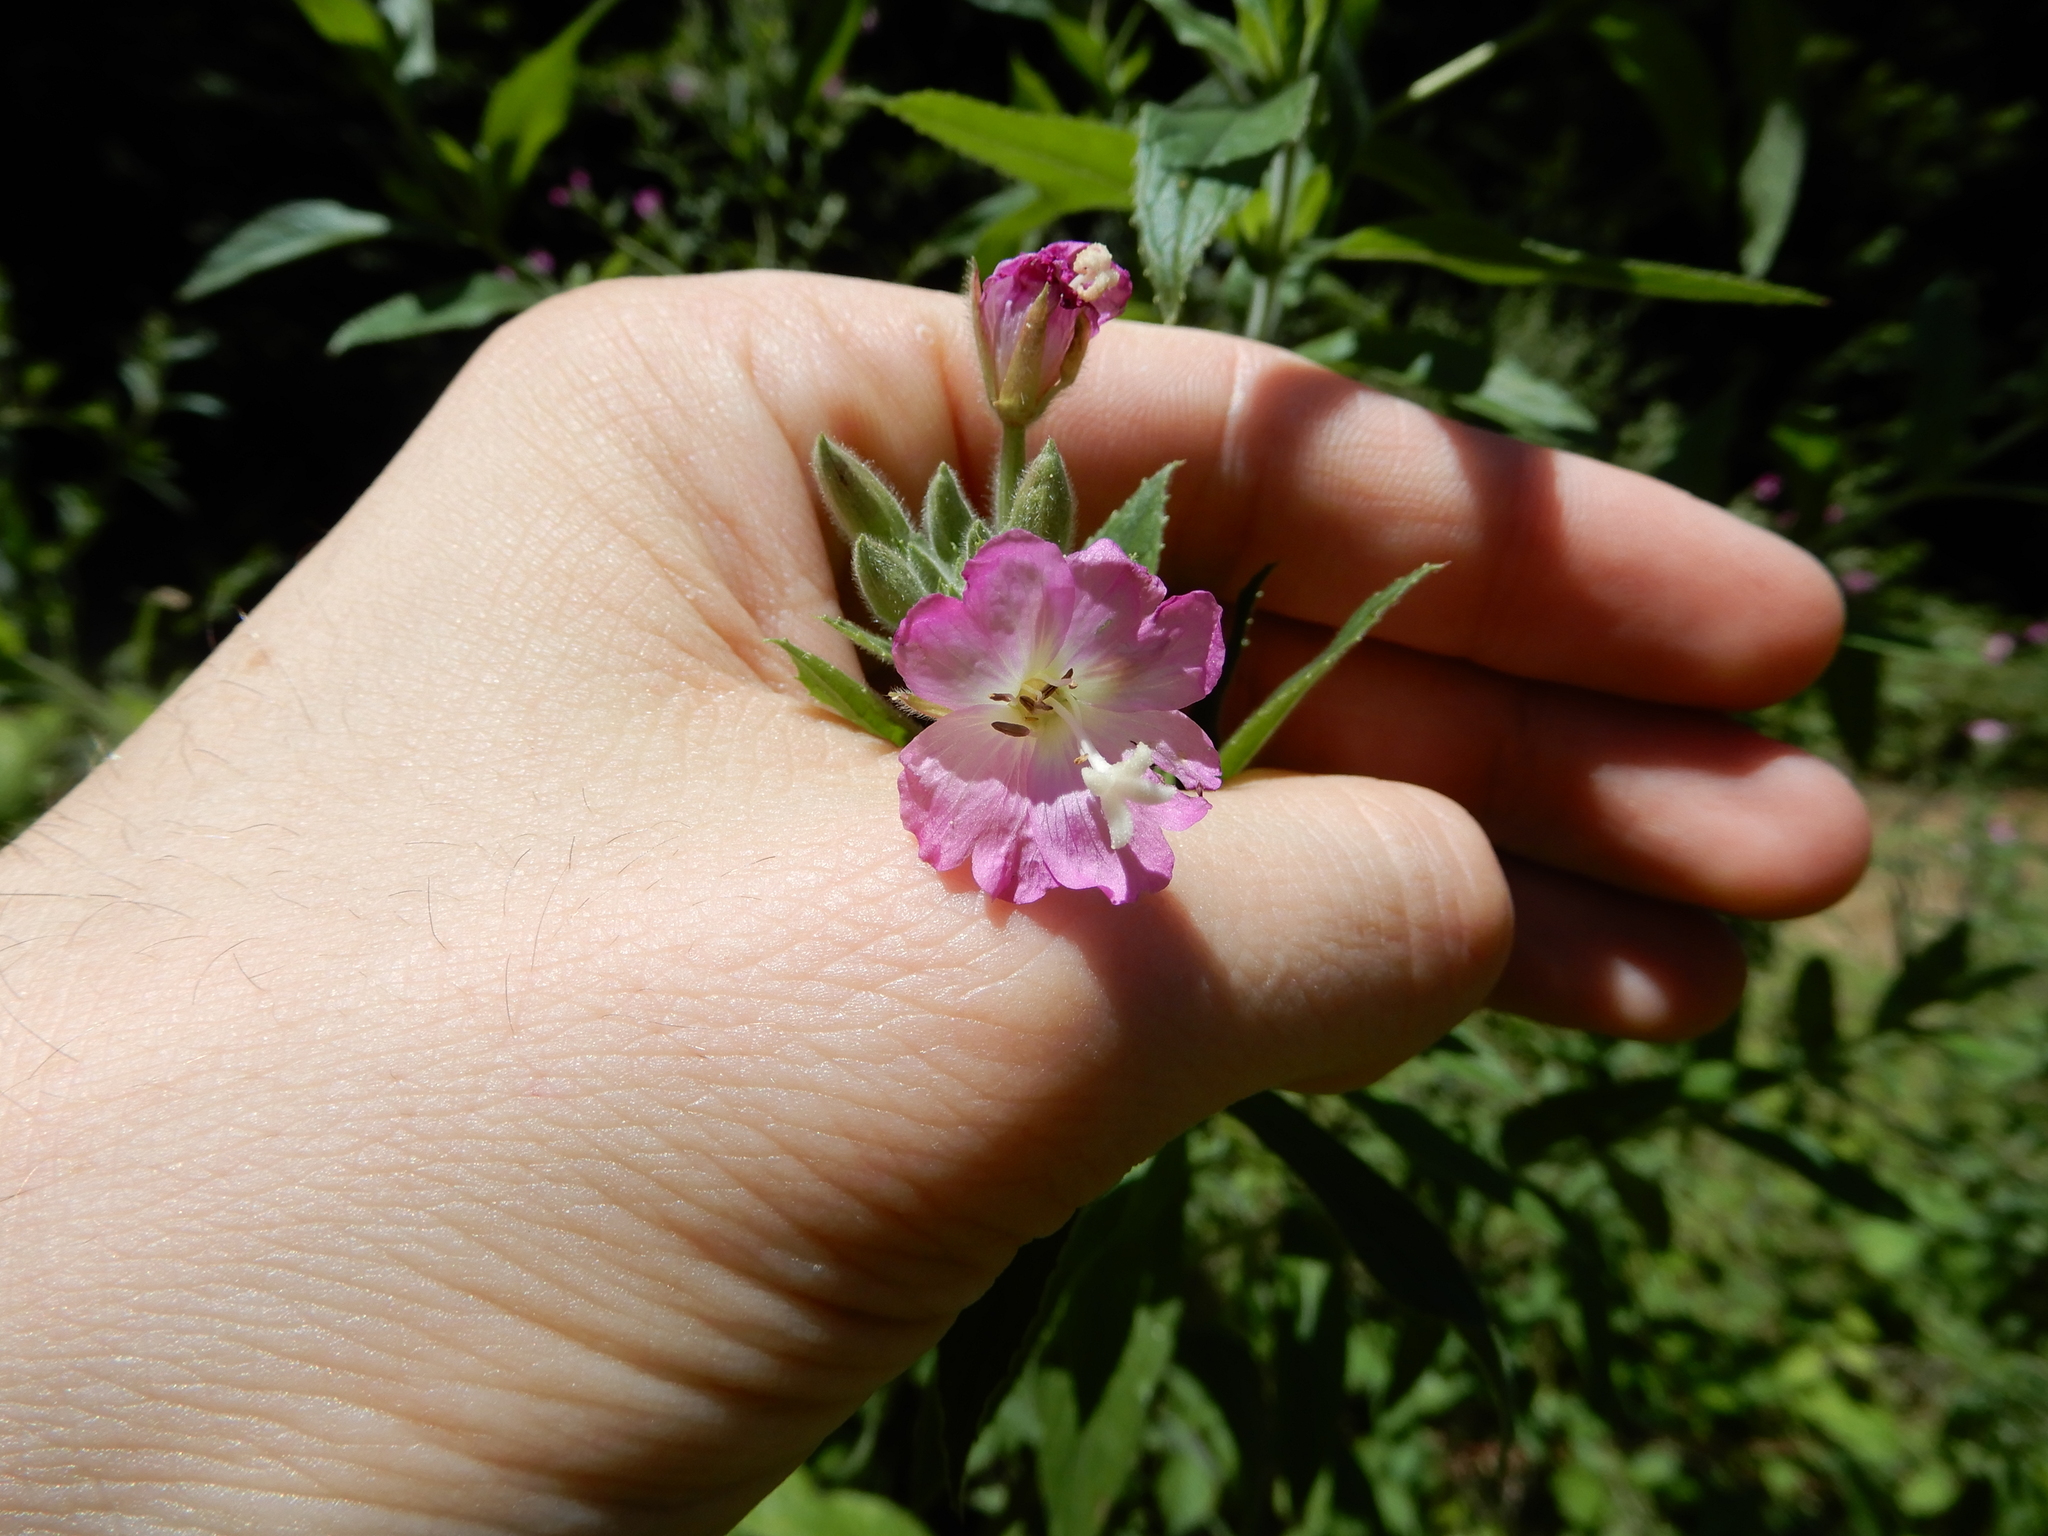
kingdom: Plantae
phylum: Tracheophyta
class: Magnoliopsida
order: Myrtales
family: Onagraceae
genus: Epilobium
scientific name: Epilobium hirsutum
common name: Great willowherb
